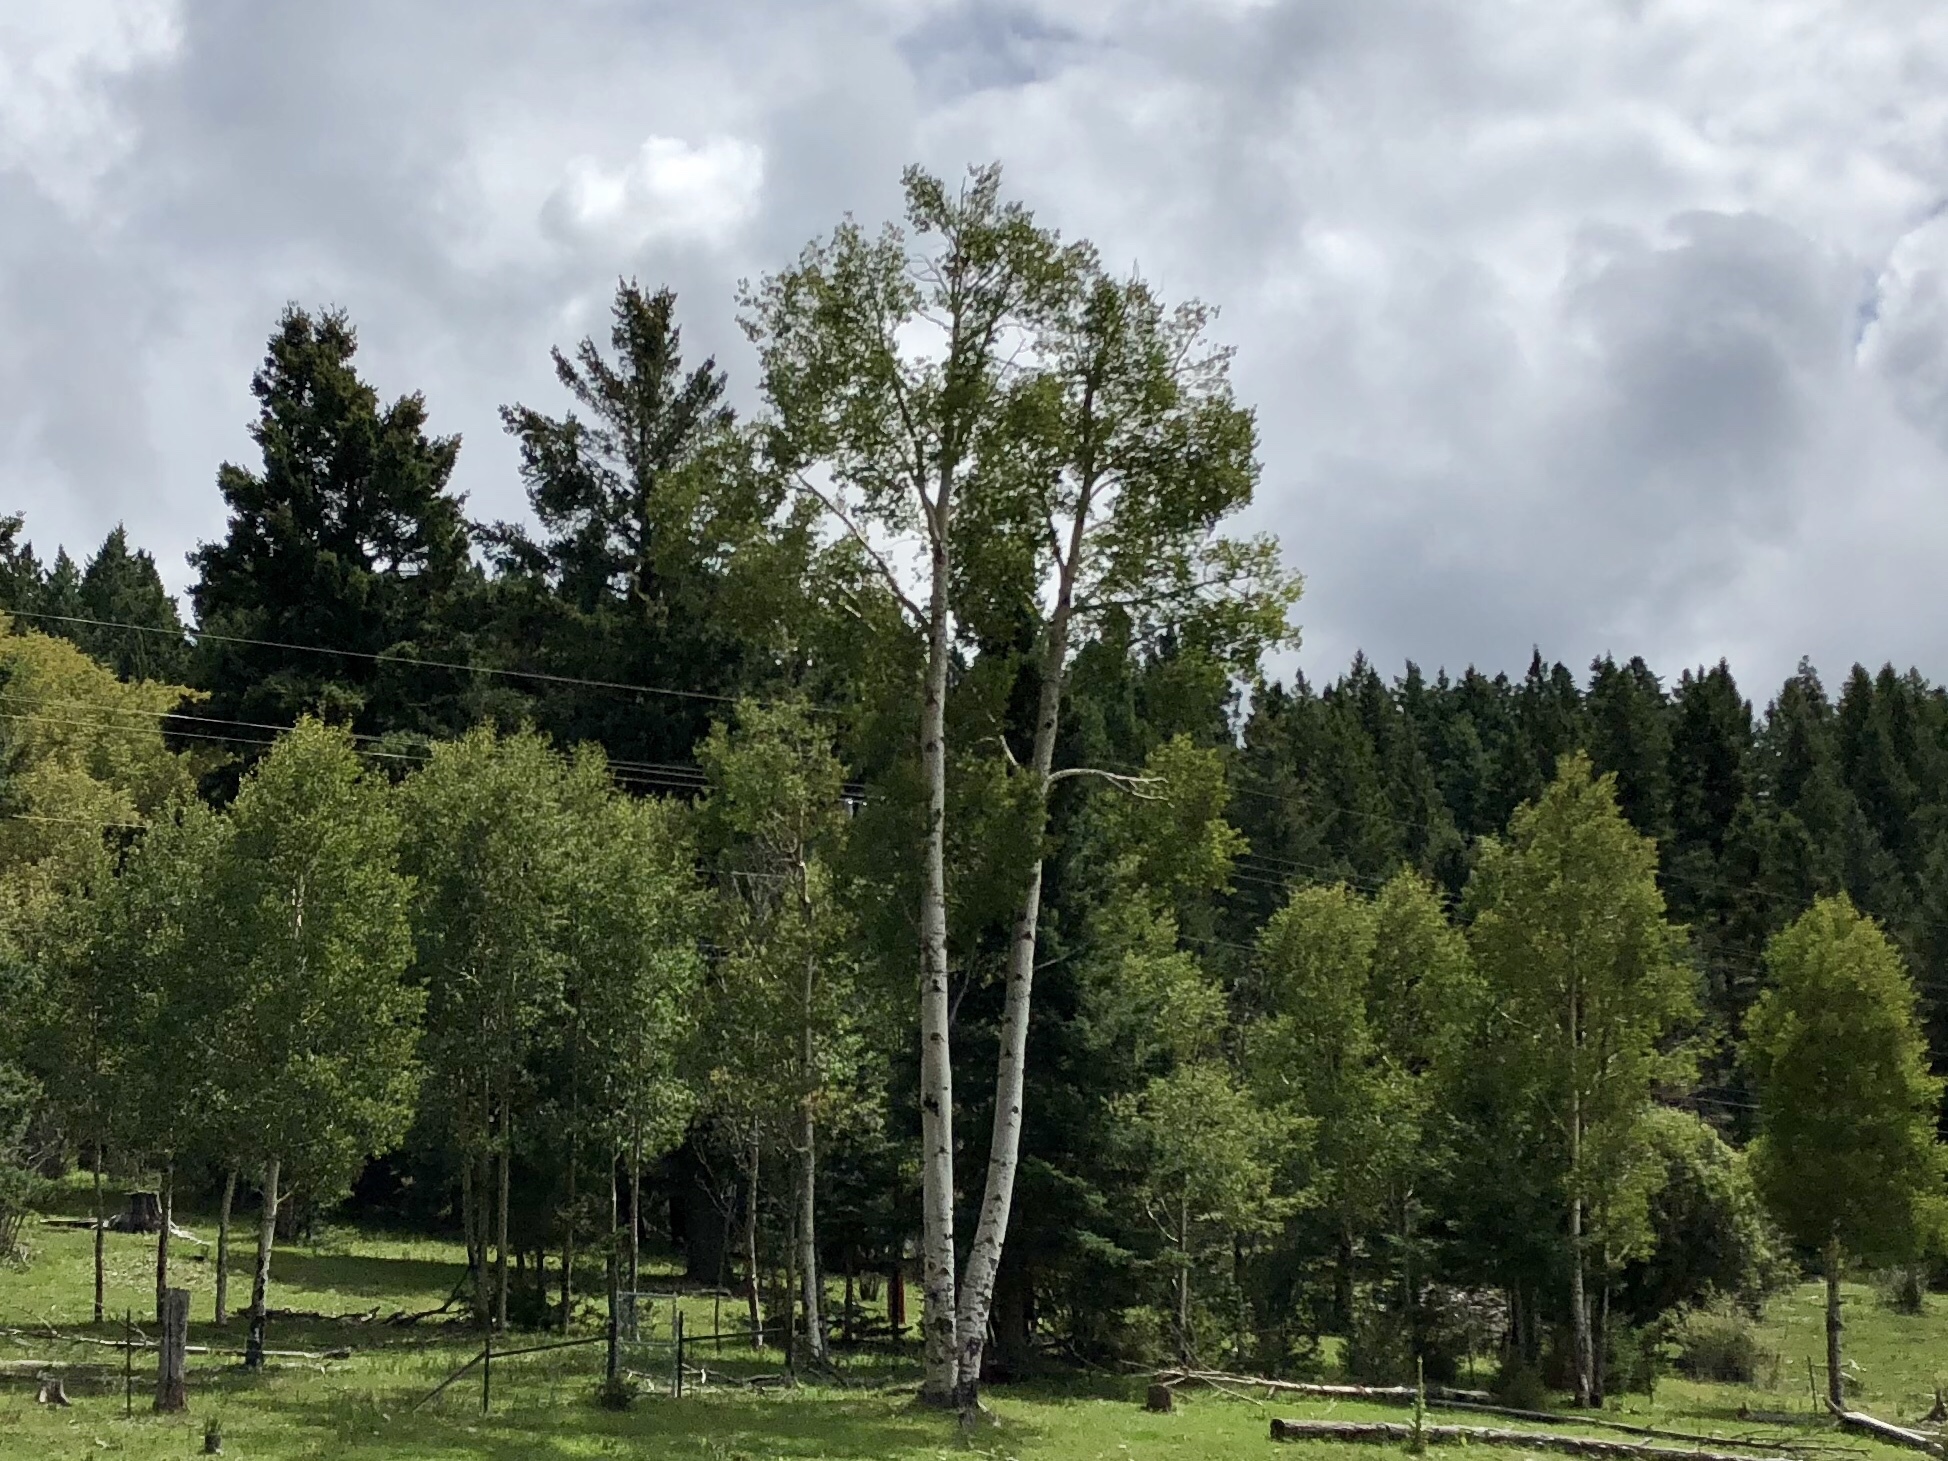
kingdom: Plantae
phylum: Tracheophyta
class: Magnoliopsida
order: Malpighiales
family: Salicaceae
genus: Populus
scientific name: Populus tremuloides
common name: Quaking aspen
